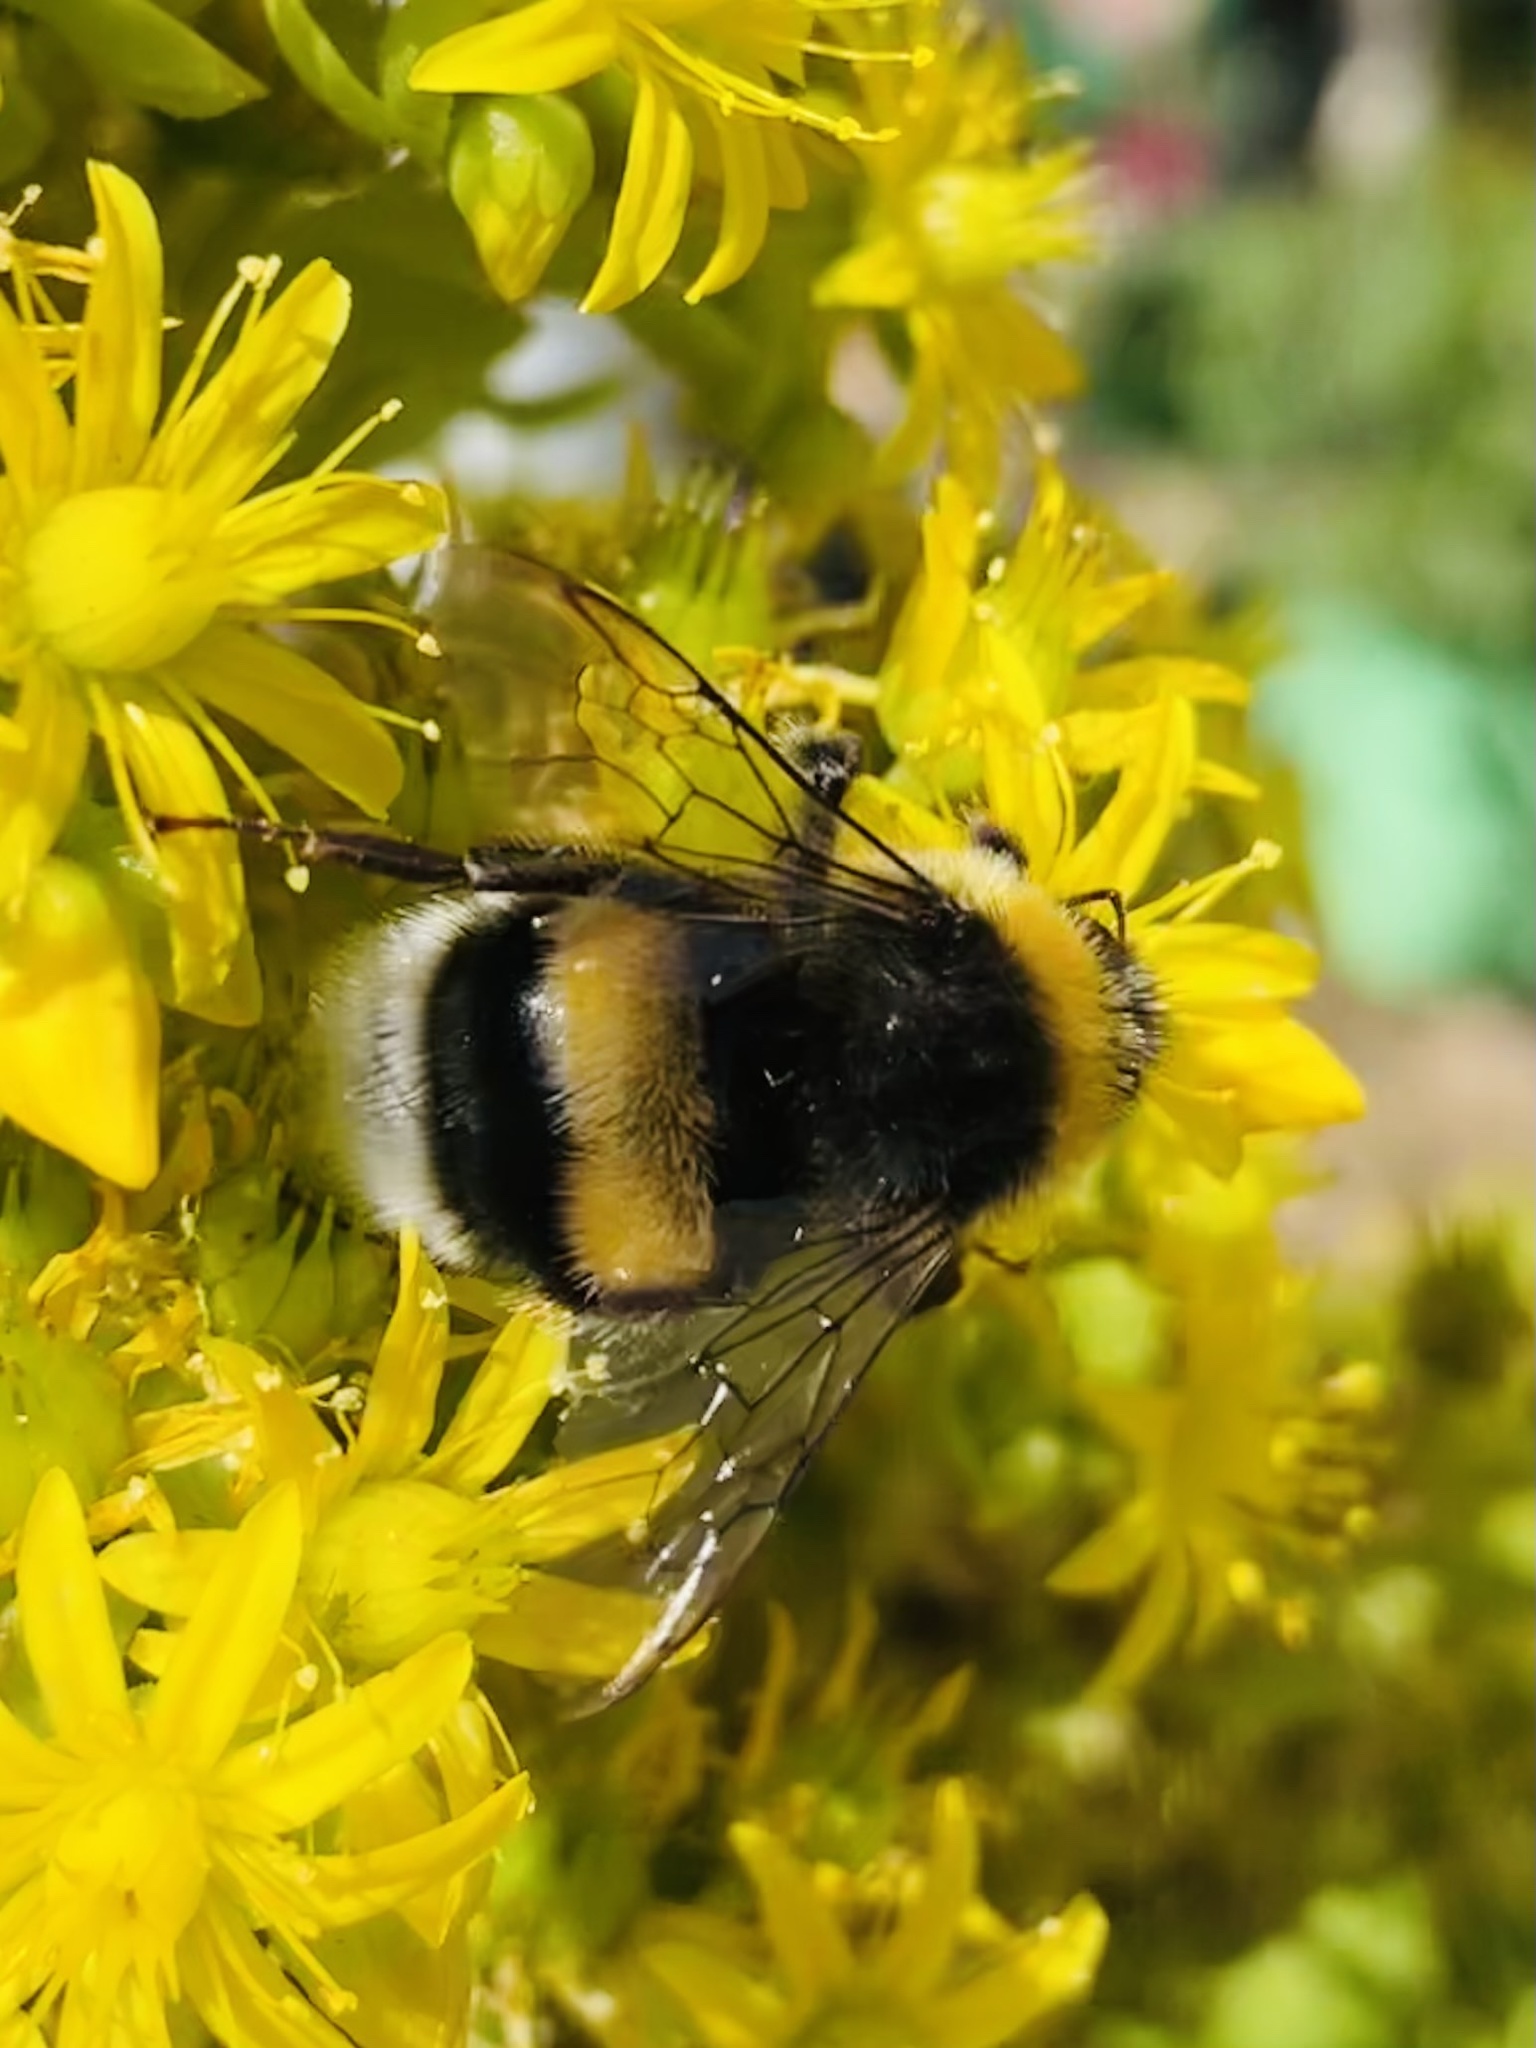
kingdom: Animalia
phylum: Arthropoda
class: Insecta
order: Hymenoptera
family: Apidae
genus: Bombus
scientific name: Bombus terrestris
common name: Buff-tailed bumblebee
